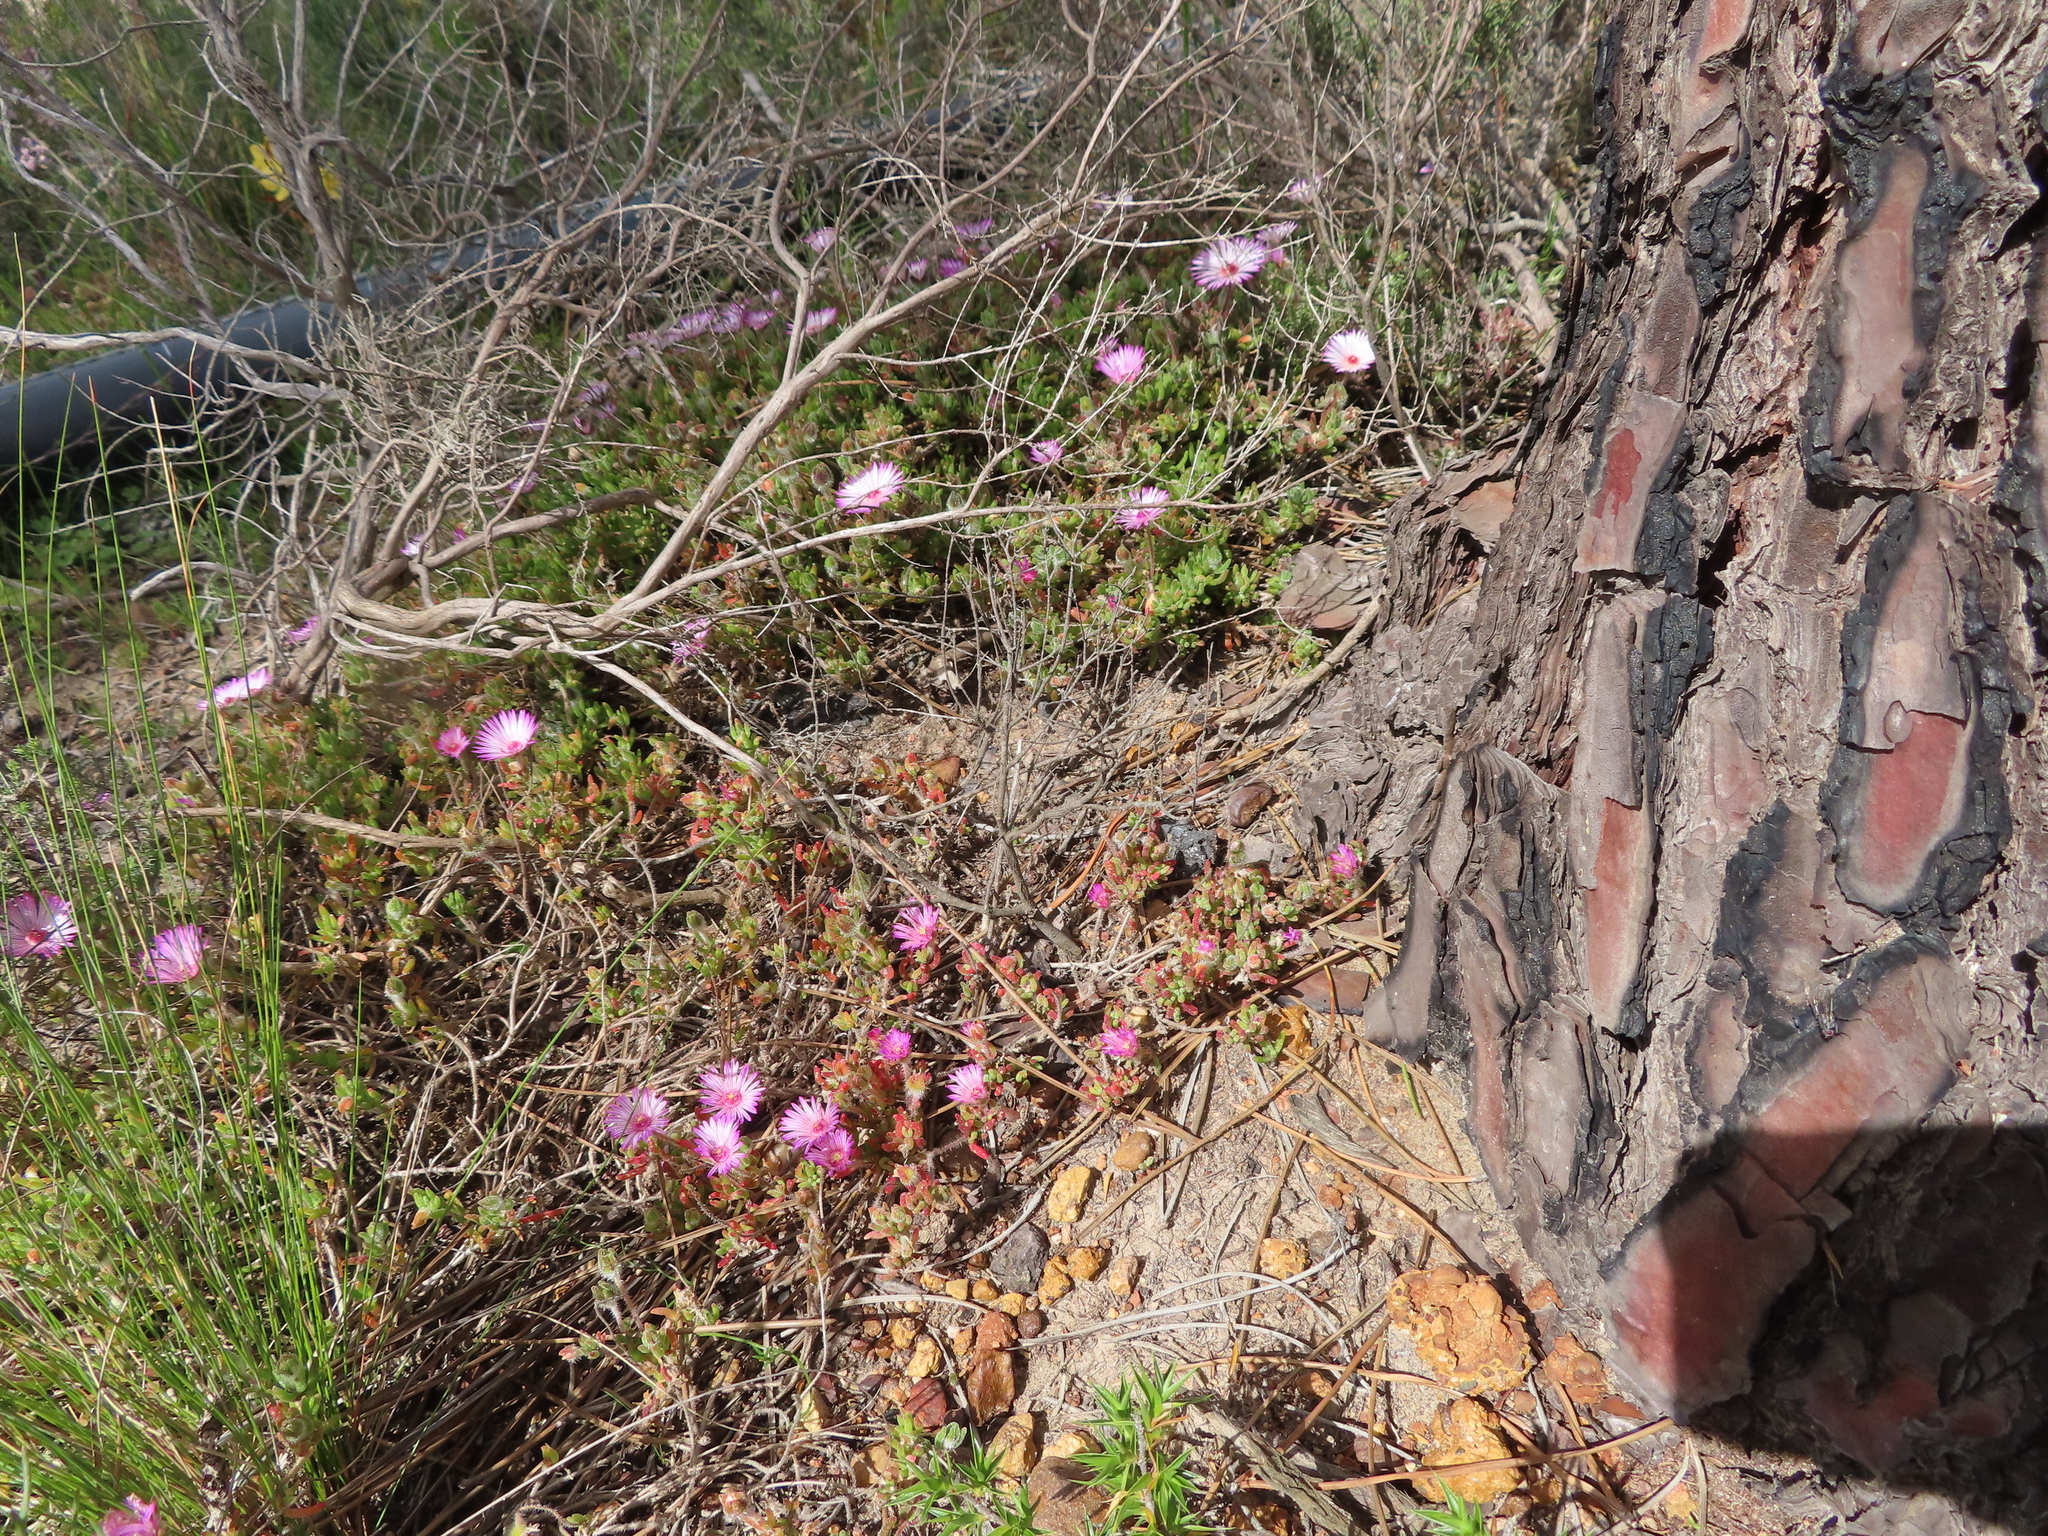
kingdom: Plantae
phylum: Tracheophyta
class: Magnoliopsida
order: Caryophyllales
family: Aizoaceae
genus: Drosanthemum
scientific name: Drosanthemum striatum
